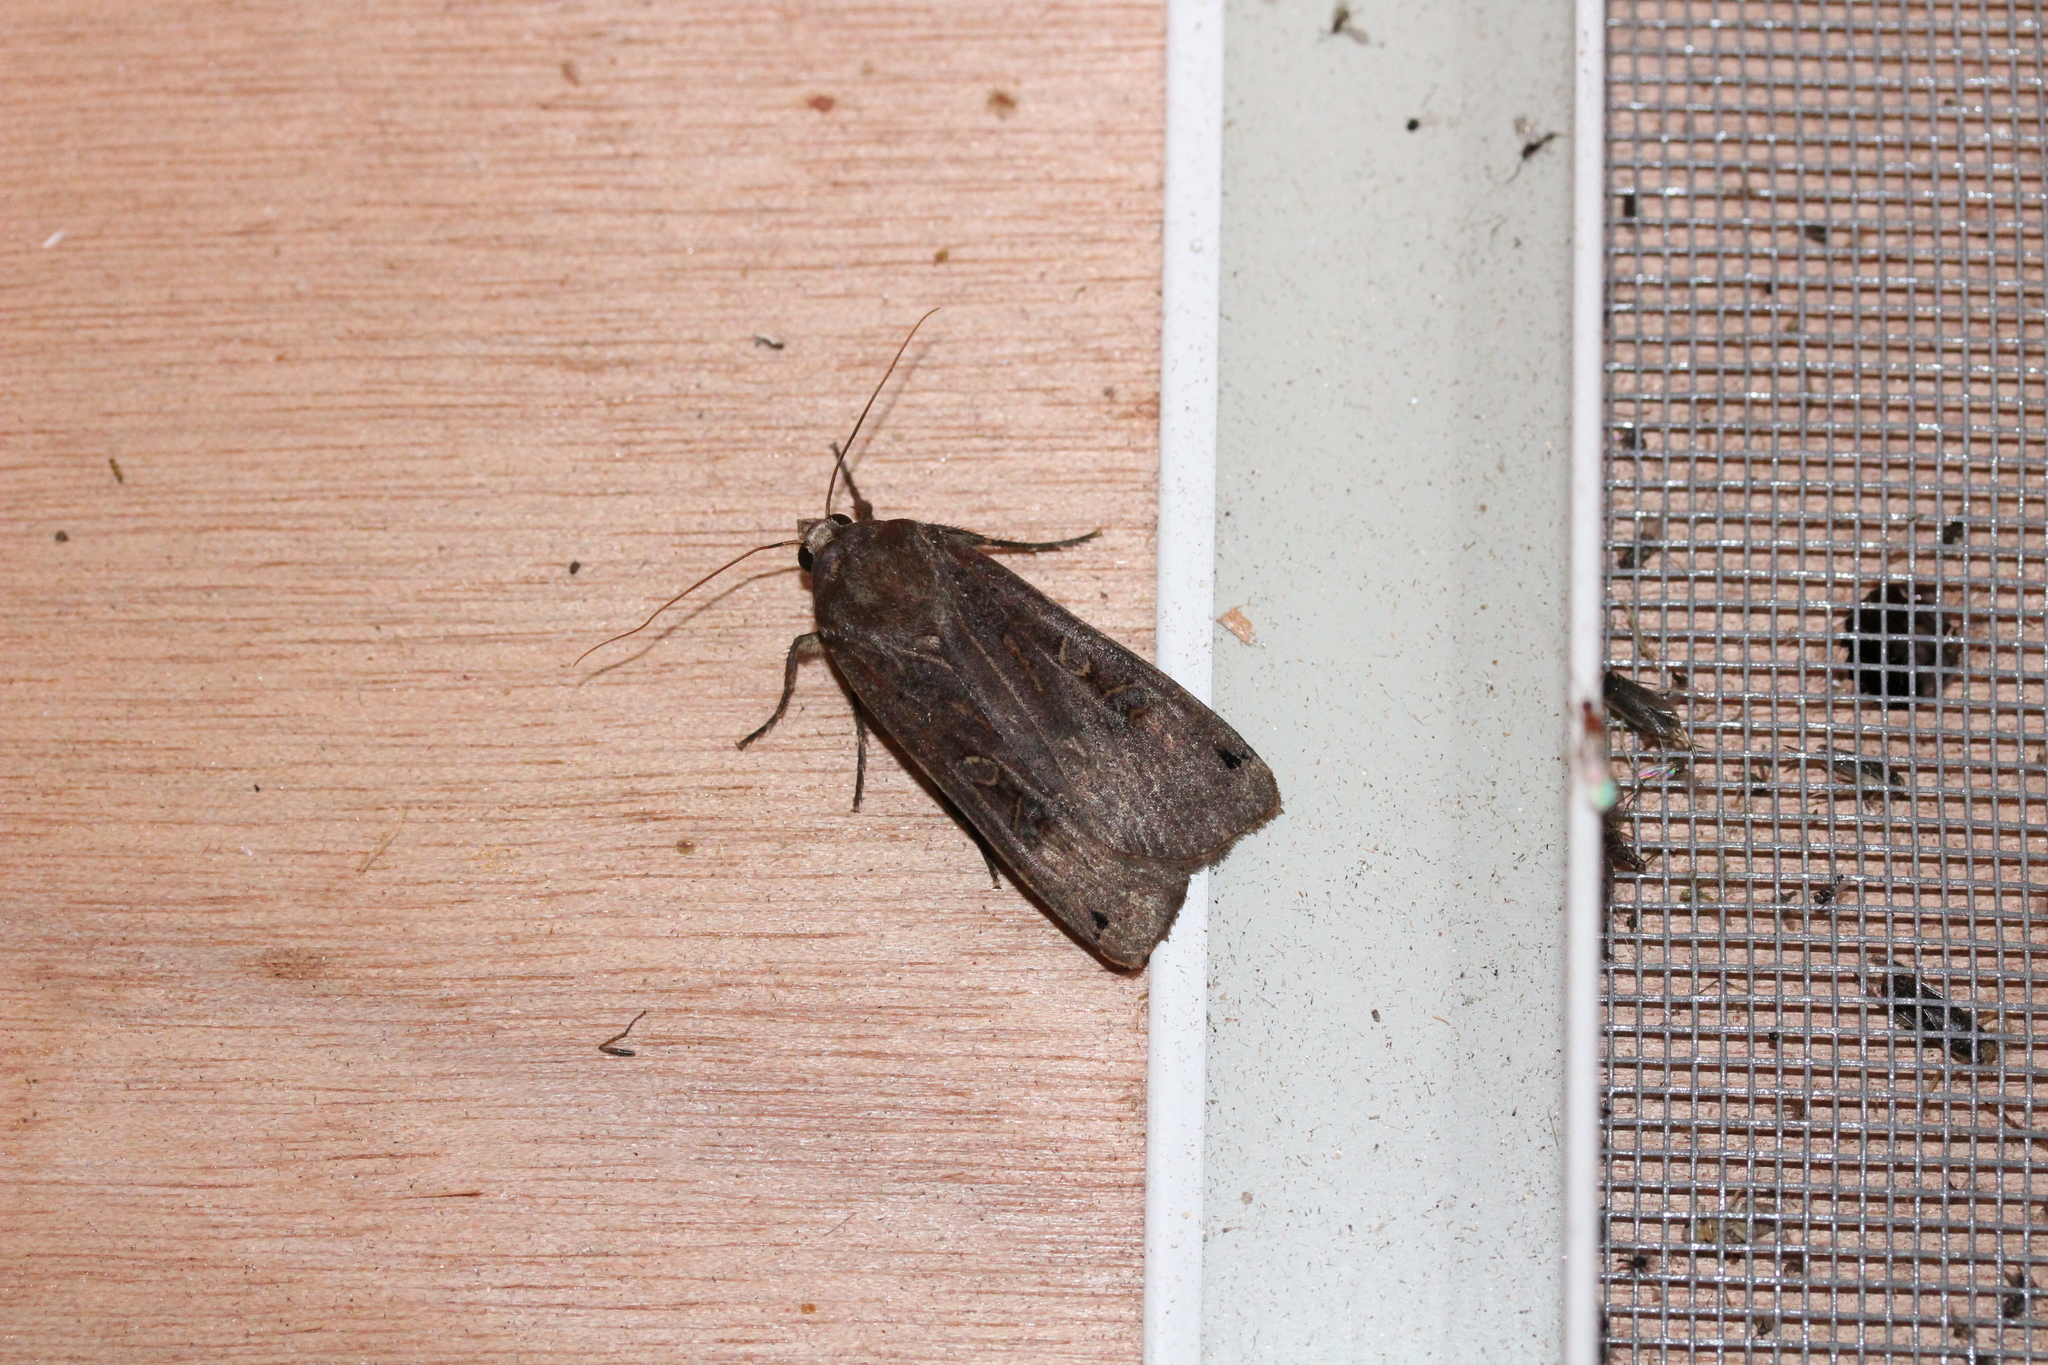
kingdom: Animalia
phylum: Arthropoda
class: Insecta
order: Lepidoptera
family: Noctuidae
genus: Noctua
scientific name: Noctua pronuba
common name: Large yellow underwing
